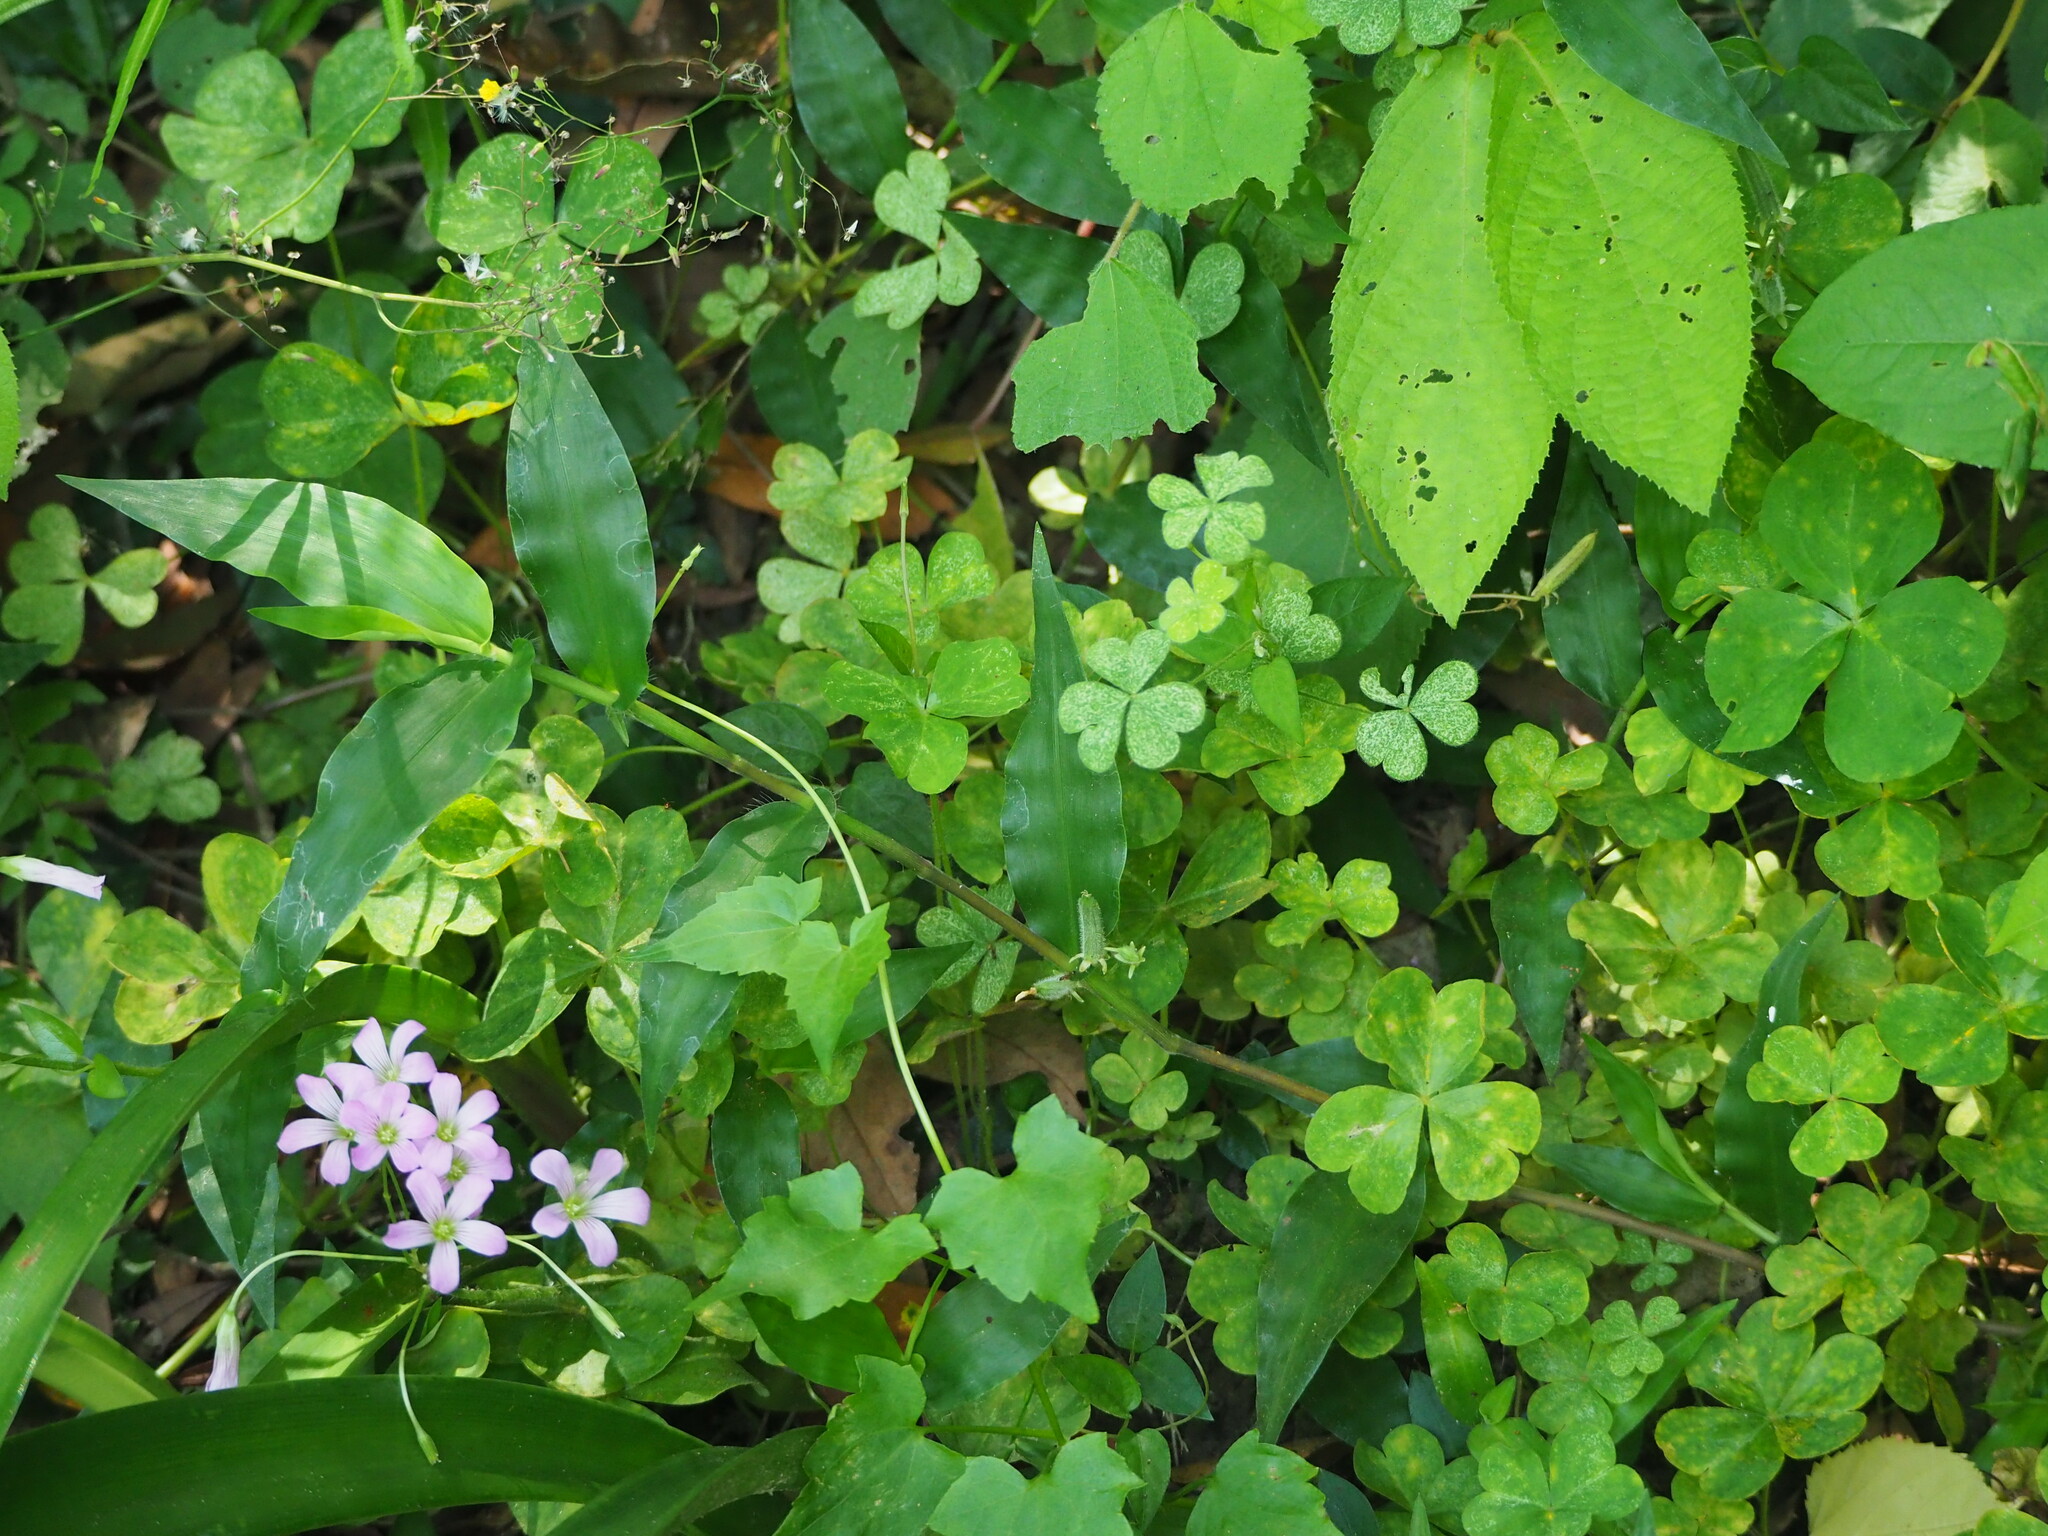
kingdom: Plantae
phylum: Tracheophyta
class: Magnoliopsida
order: Oxalidales
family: Oxalidaceae
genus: Oxalis
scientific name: Oxalis debilis
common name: Large-flowered pink-sorrel
